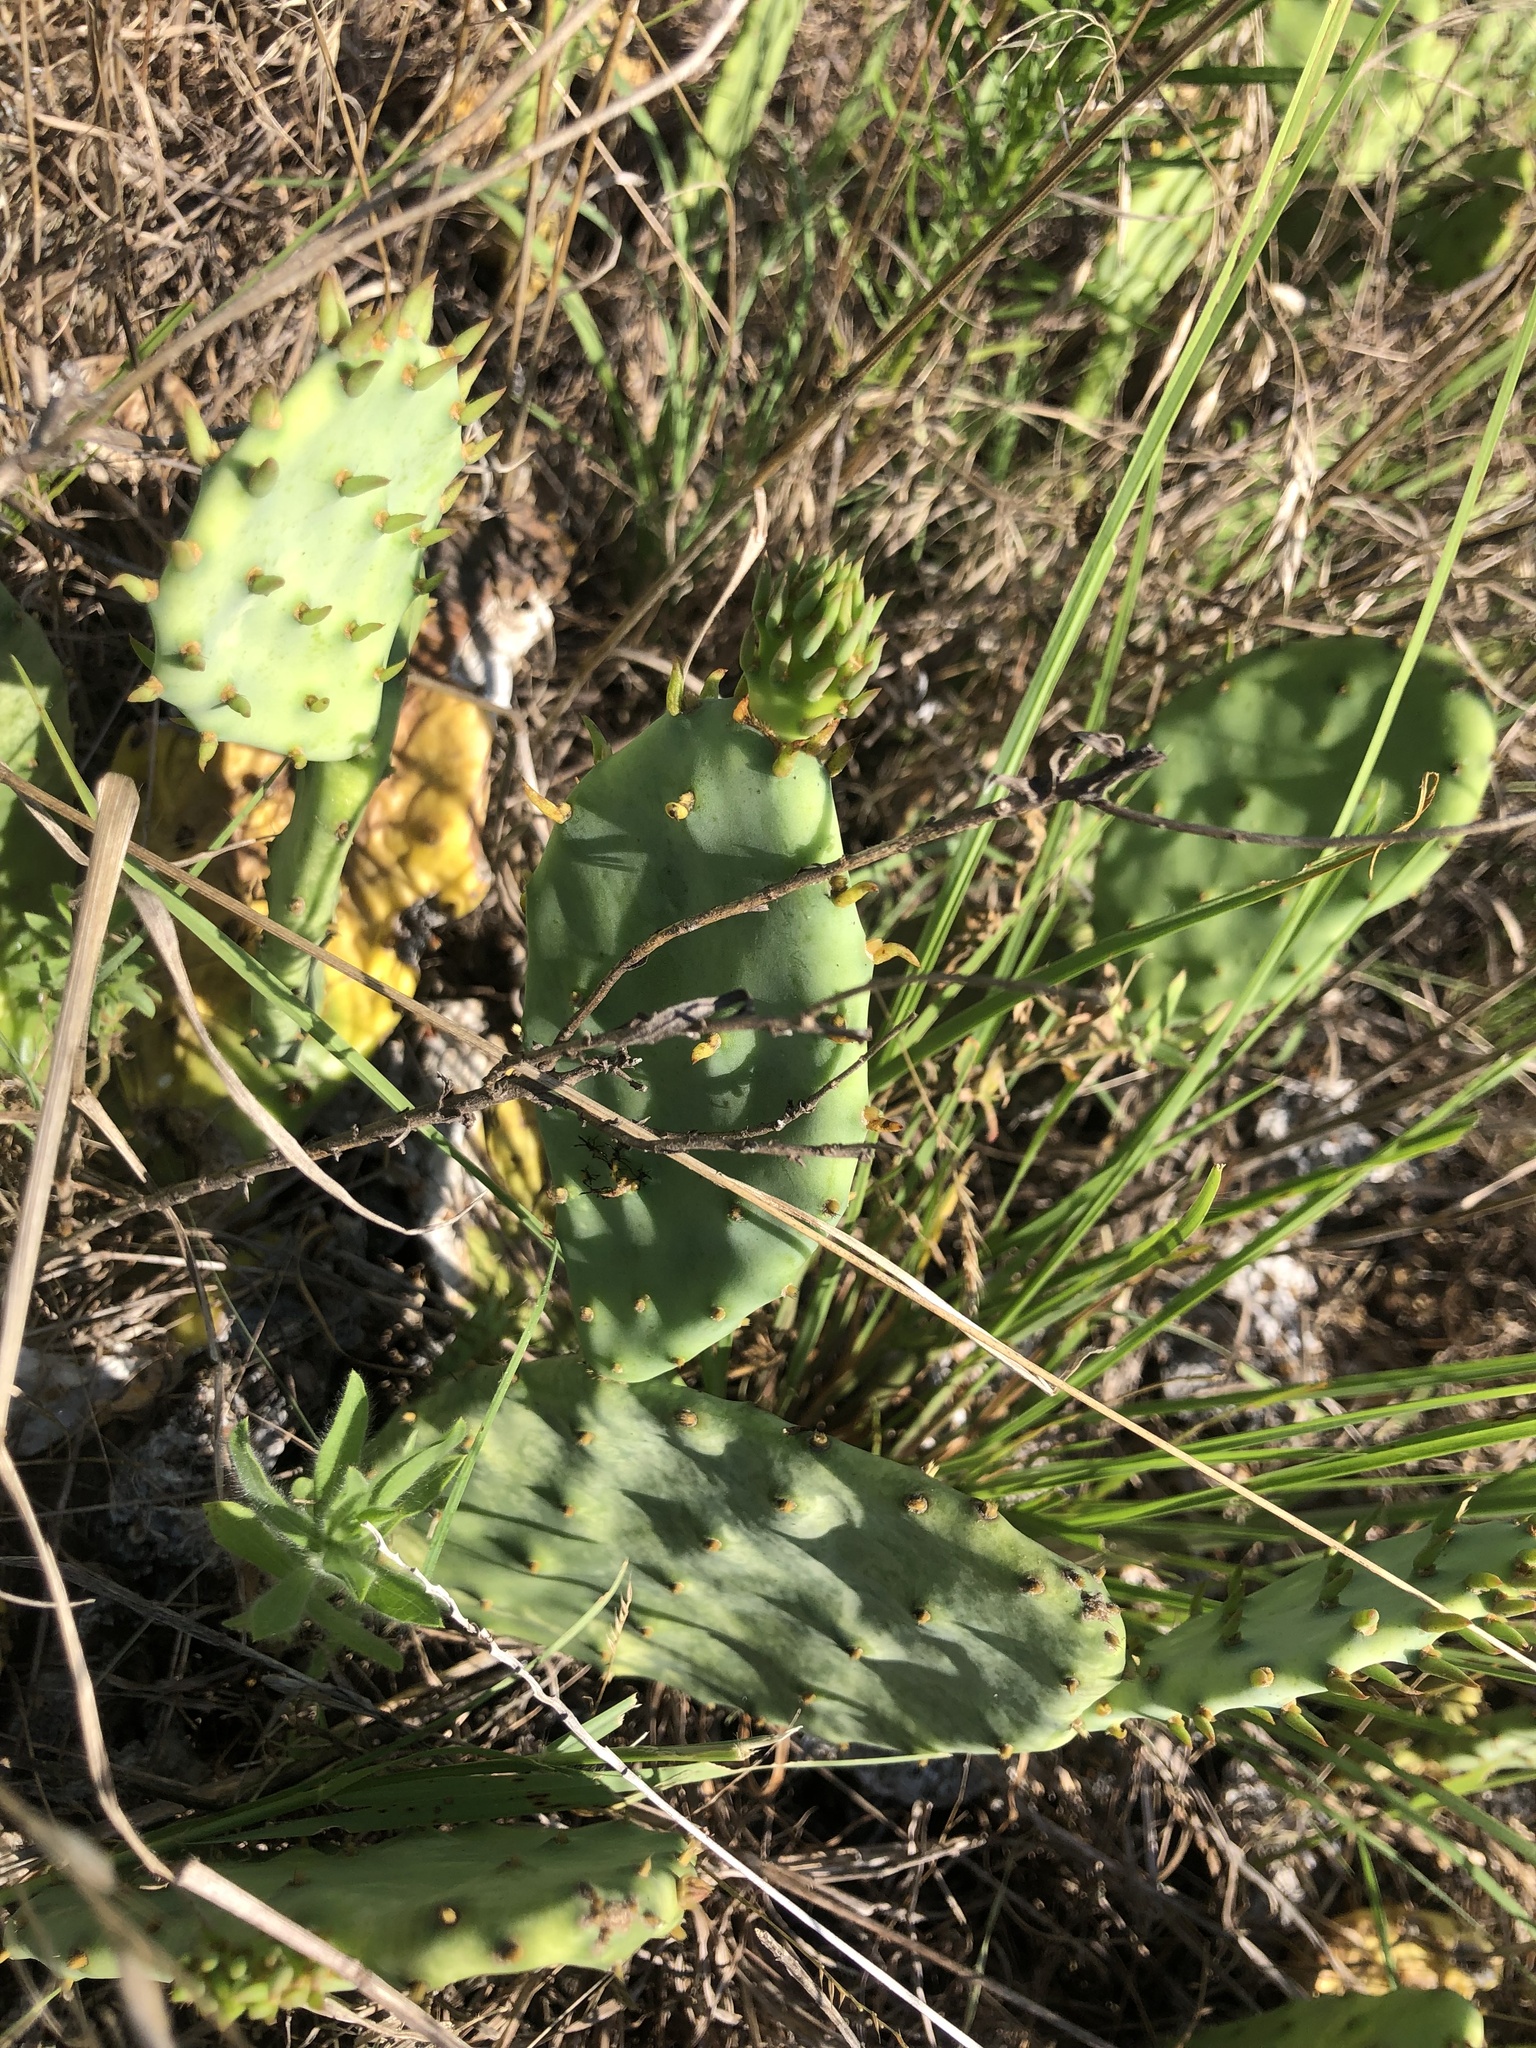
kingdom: Plantae
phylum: Tracheophyta
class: Magnoliopsida
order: Caryophyllales
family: Cactaceae
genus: Opuntia
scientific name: Opuntia humifusa
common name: Eastern prickly-pear
